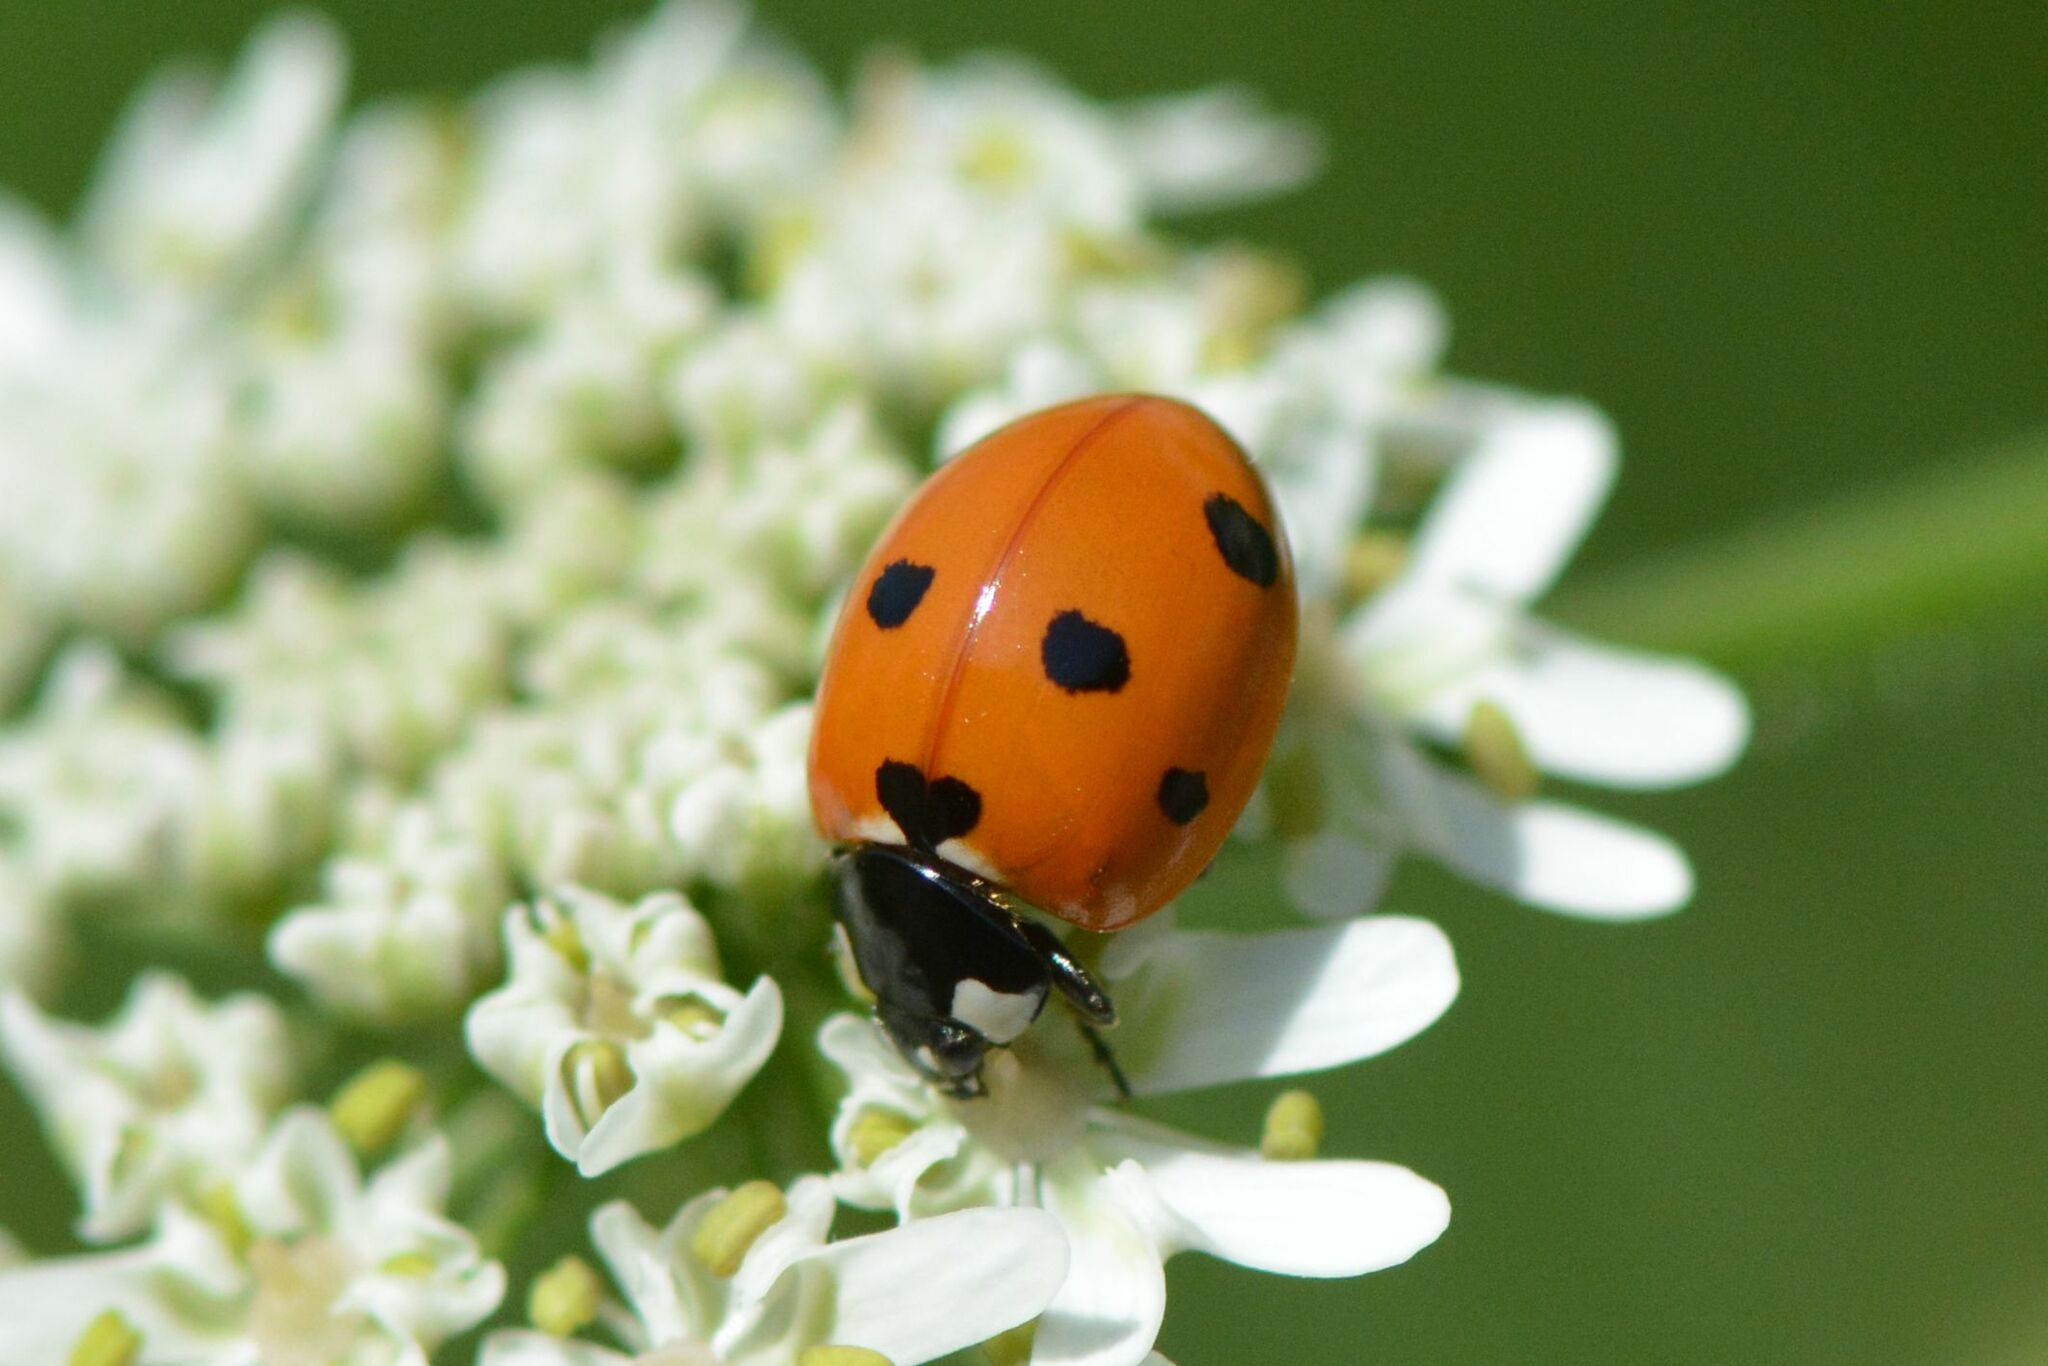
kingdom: Animalia
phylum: Arthropoda
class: Insecta
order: Coleoptera
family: Coccinellidae
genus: Coccinella
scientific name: Coccinella septempunctata
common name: Sevenspotted lady beetle
